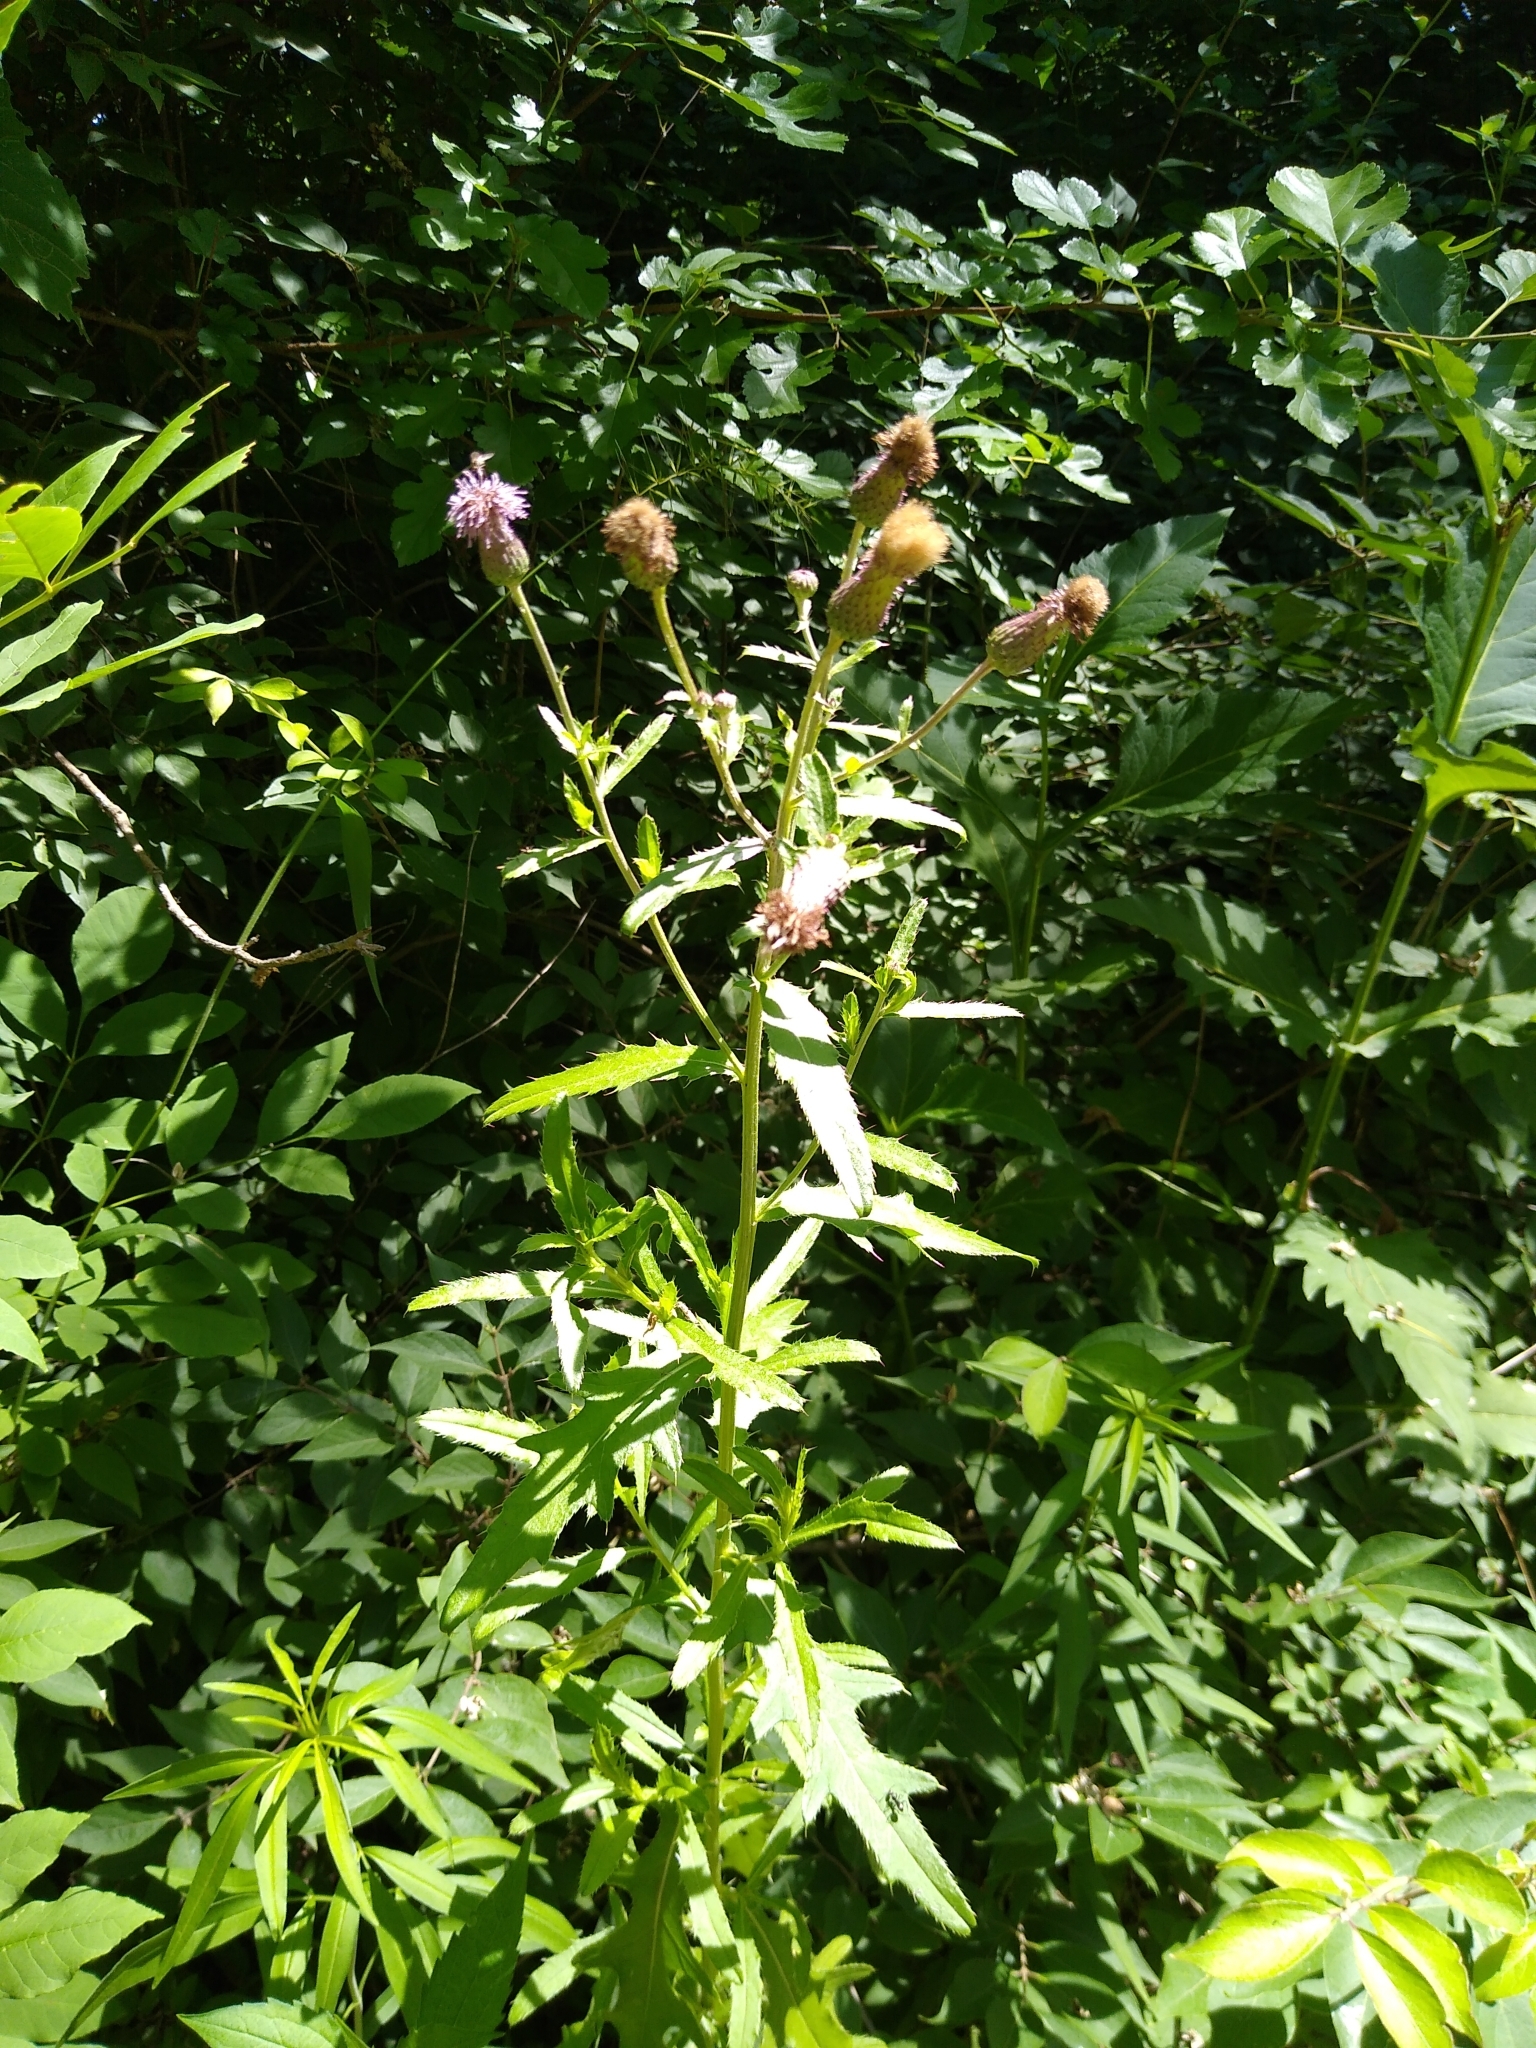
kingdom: Plantae
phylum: Tracheophyta
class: Magnoliopsida
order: Asterales
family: Asteraceae
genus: Cirsium
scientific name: Cirsium arvense
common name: Creeping thistle
